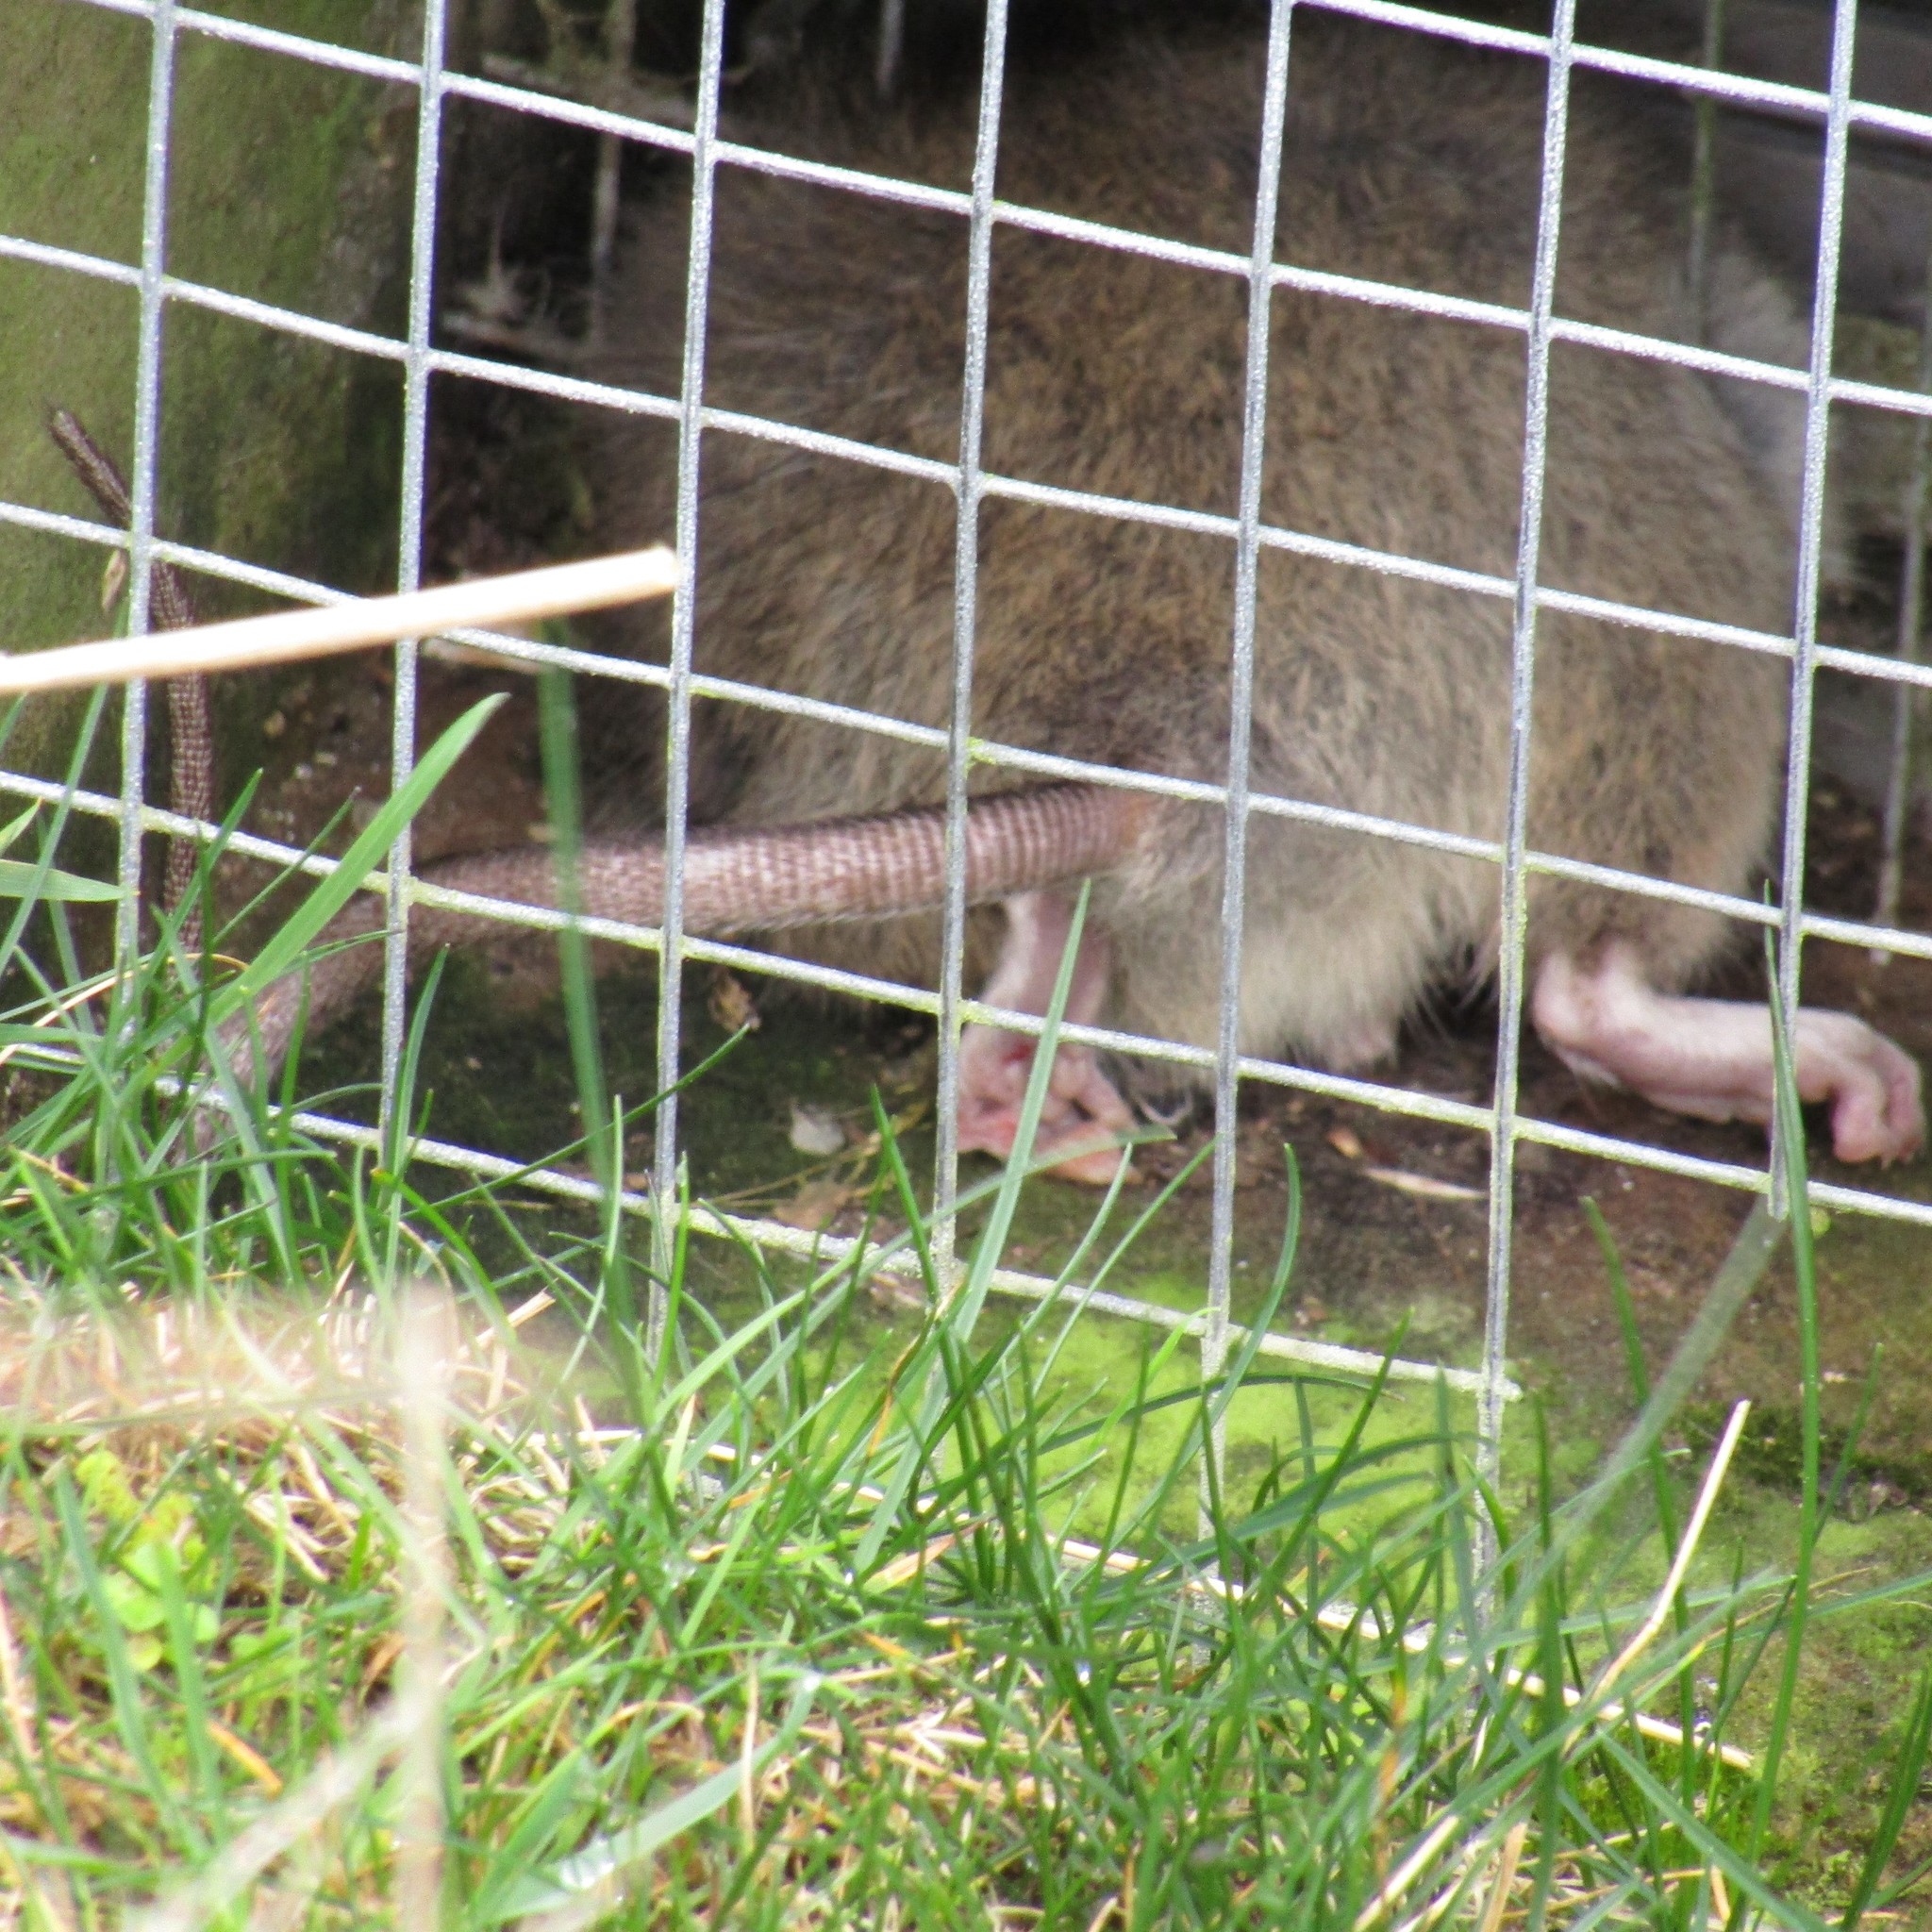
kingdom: Animalia
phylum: Chordata
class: Mammalia
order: Rodentia
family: Muridae
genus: Rattus
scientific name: Rattus norvegicus
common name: Brown rat
